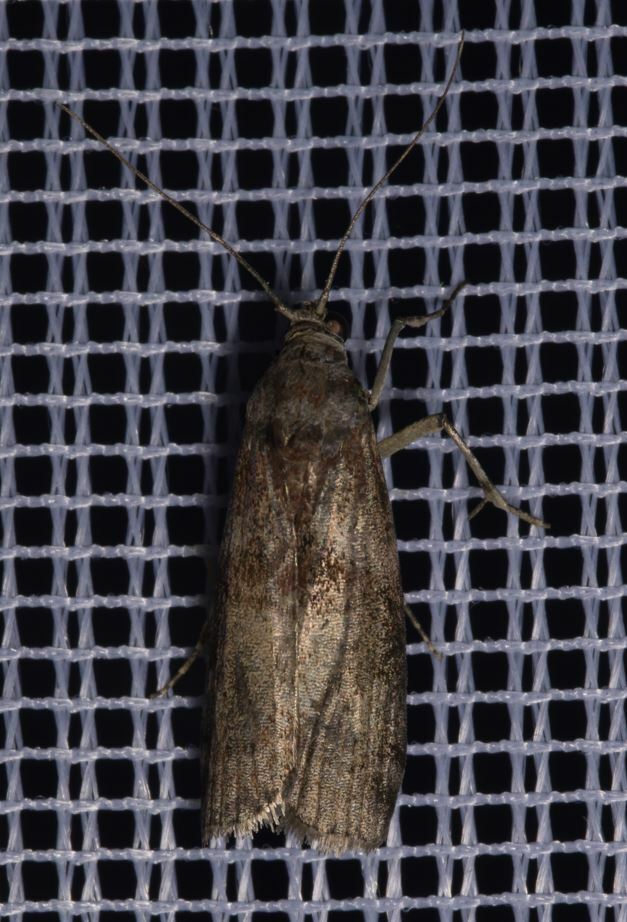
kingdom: Animalia
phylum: Arthropoda
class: Insecta
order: Lepidoptera
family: Pyralidae
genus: Phycita
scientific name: Phycita roborella
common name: Dotted oak knot-horn
